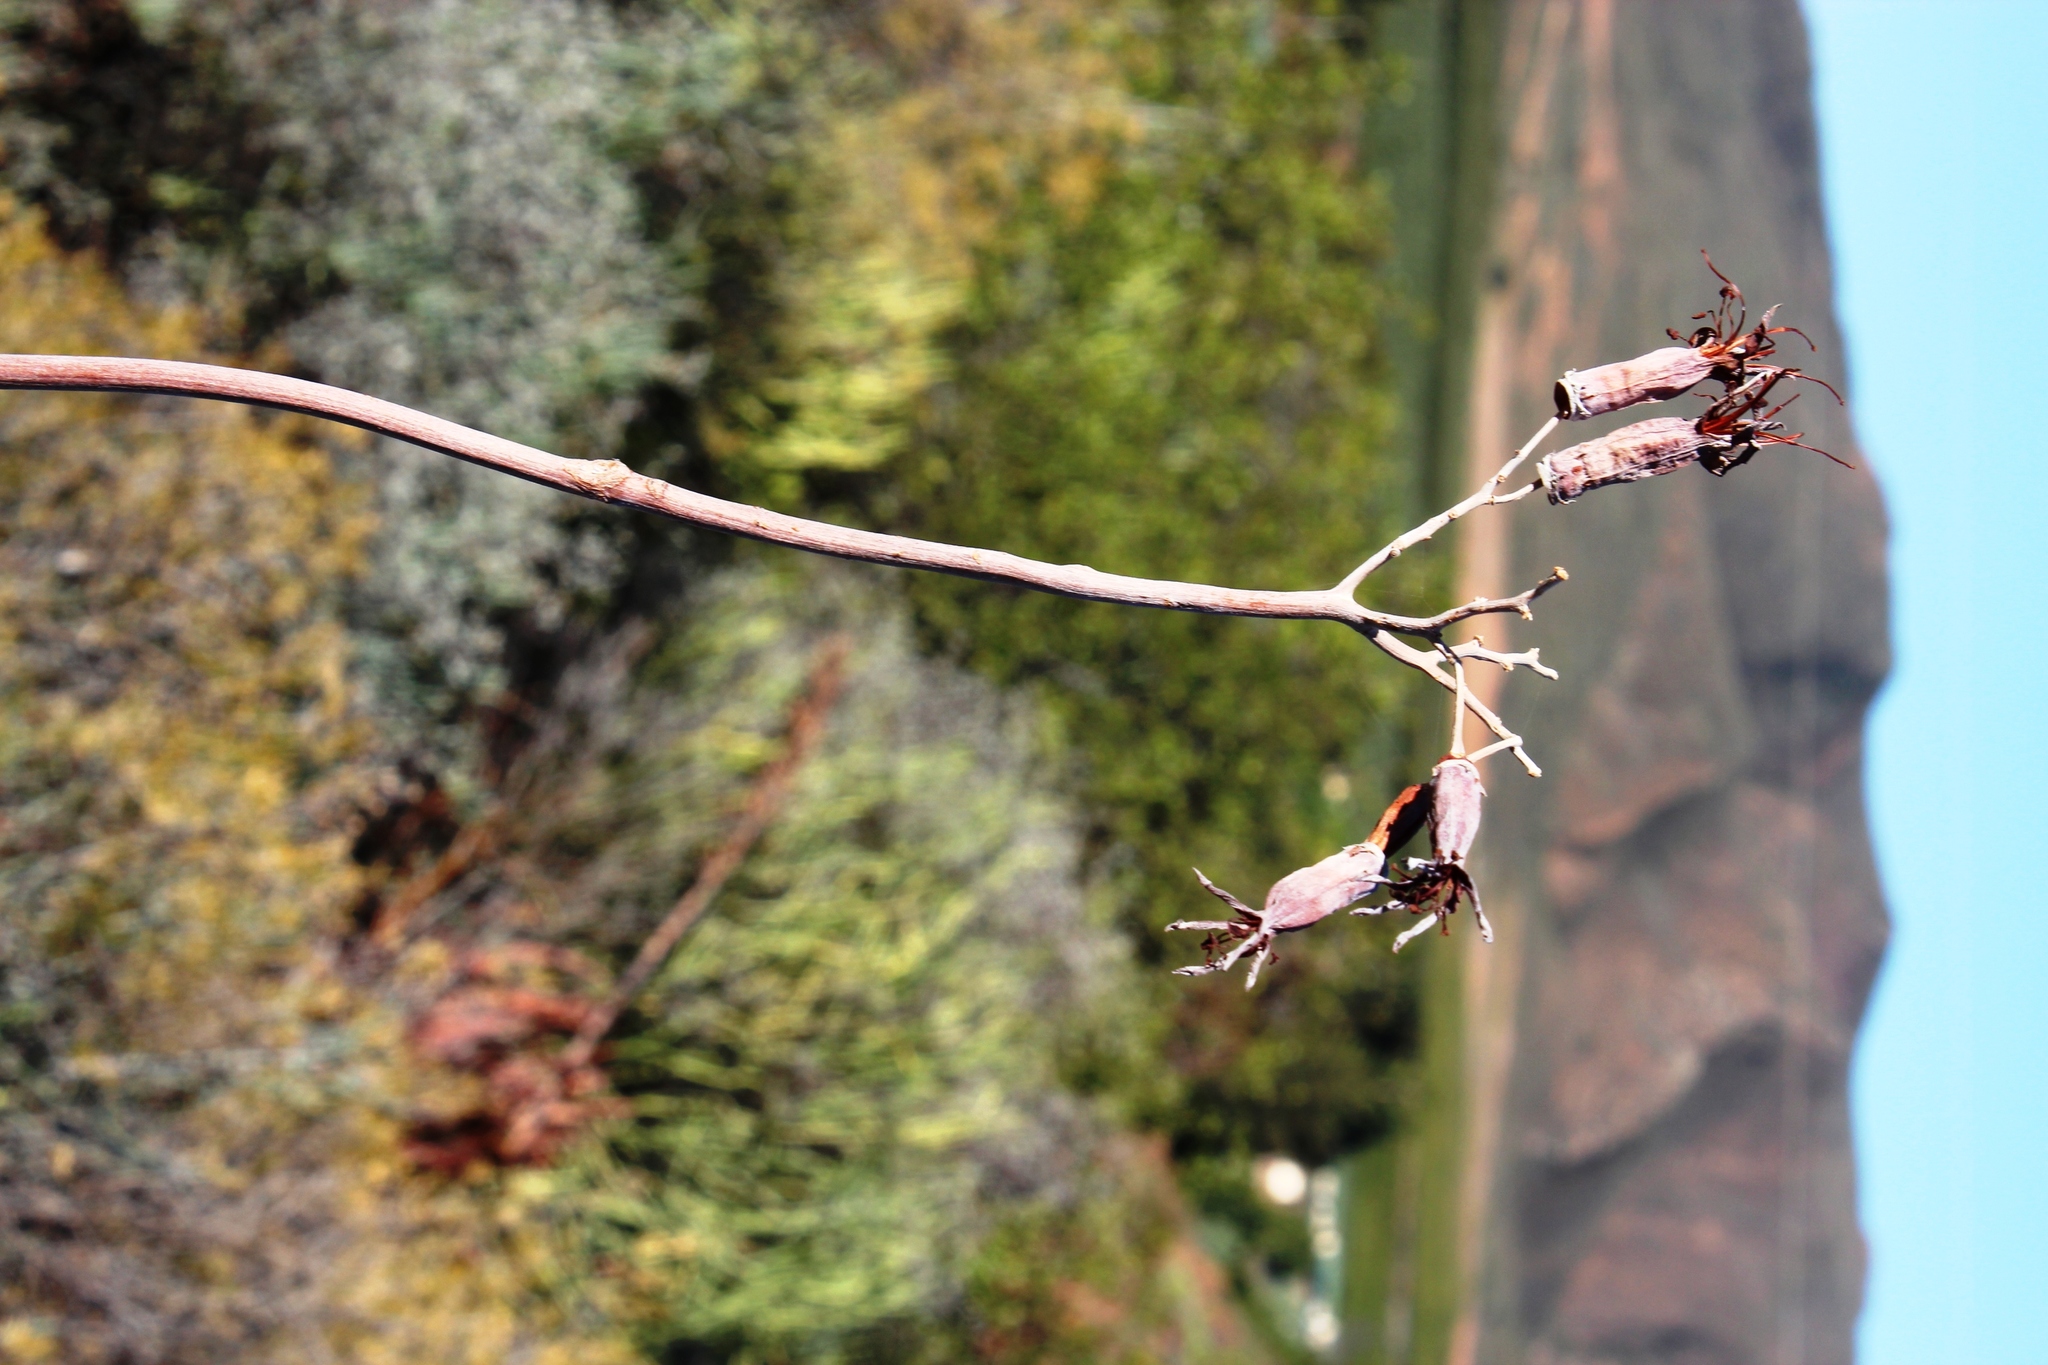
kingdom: Plantae
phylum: Tracheophyta
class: Magnoliopsida
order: Saxifragales
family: Crassulaceae
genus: Cotyledon
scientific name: Cotyledon orbiculata
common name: Pig's ear
